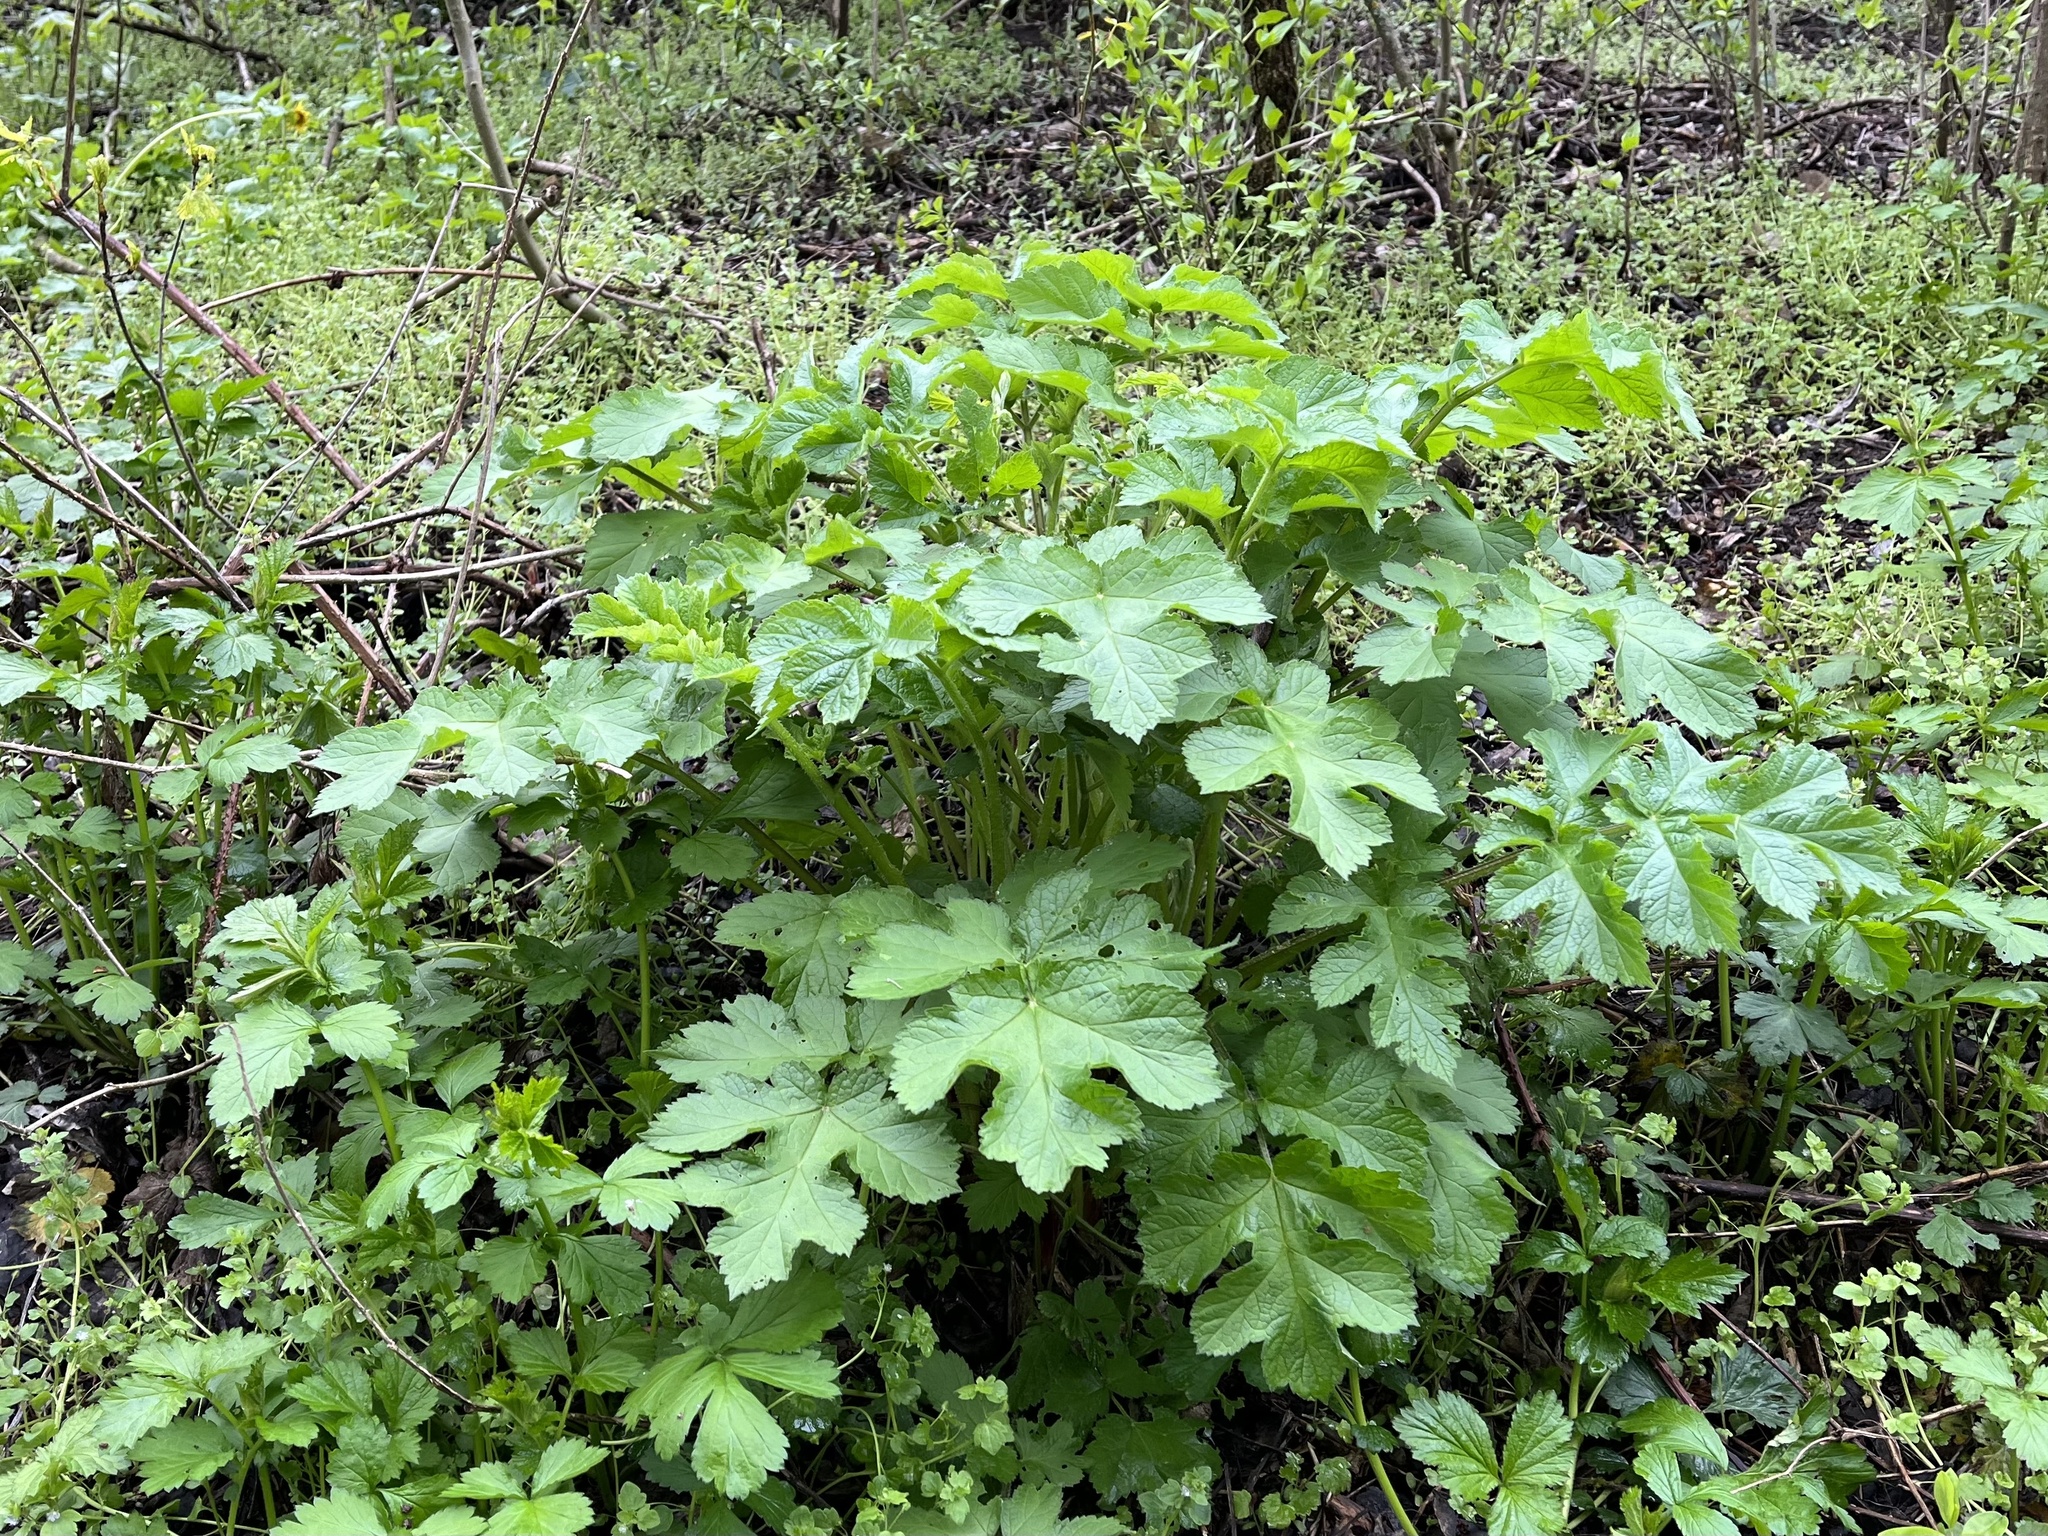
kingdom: Plantae
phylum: Tracheophyta
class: Magnoliopsida
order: Apiales
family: Apiaceae
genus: Heracleum
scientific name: Heracleum sphondylium
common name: Hogweed
